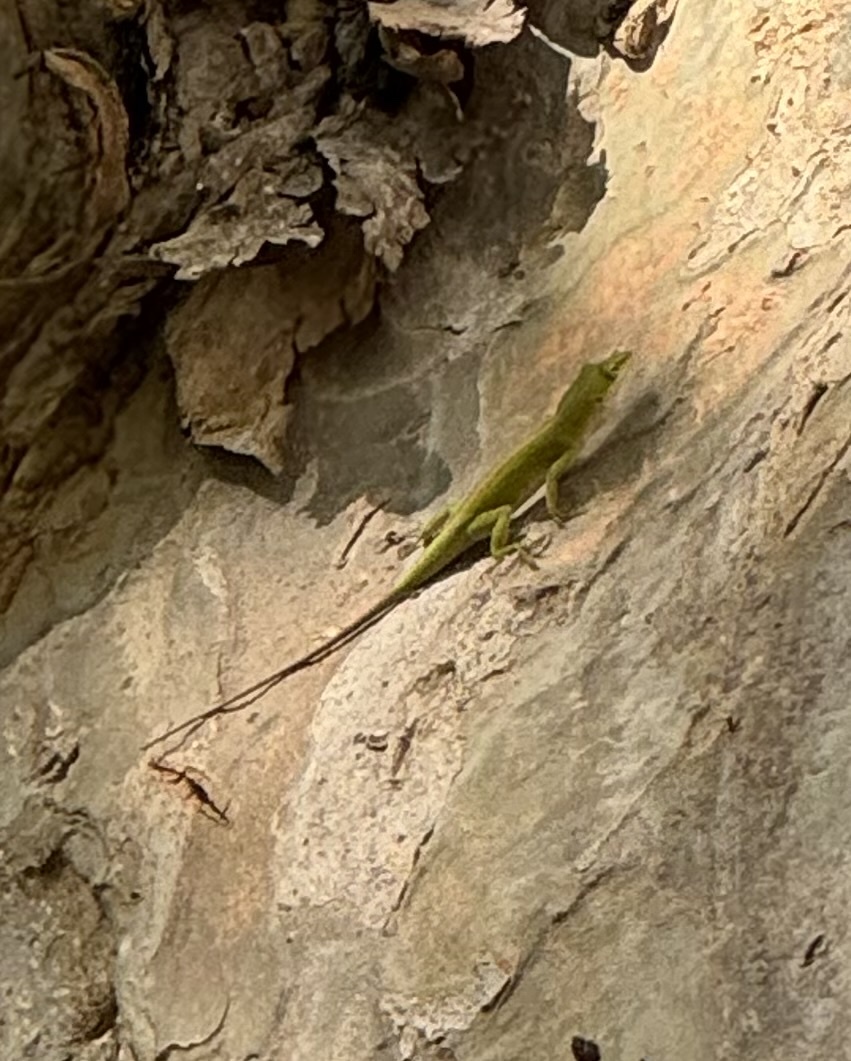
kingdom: Animalia
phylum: Chordata
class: Squamata
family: Dactyloidae
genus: Anolis
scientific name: Anolis carolinensis
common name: Green anole
